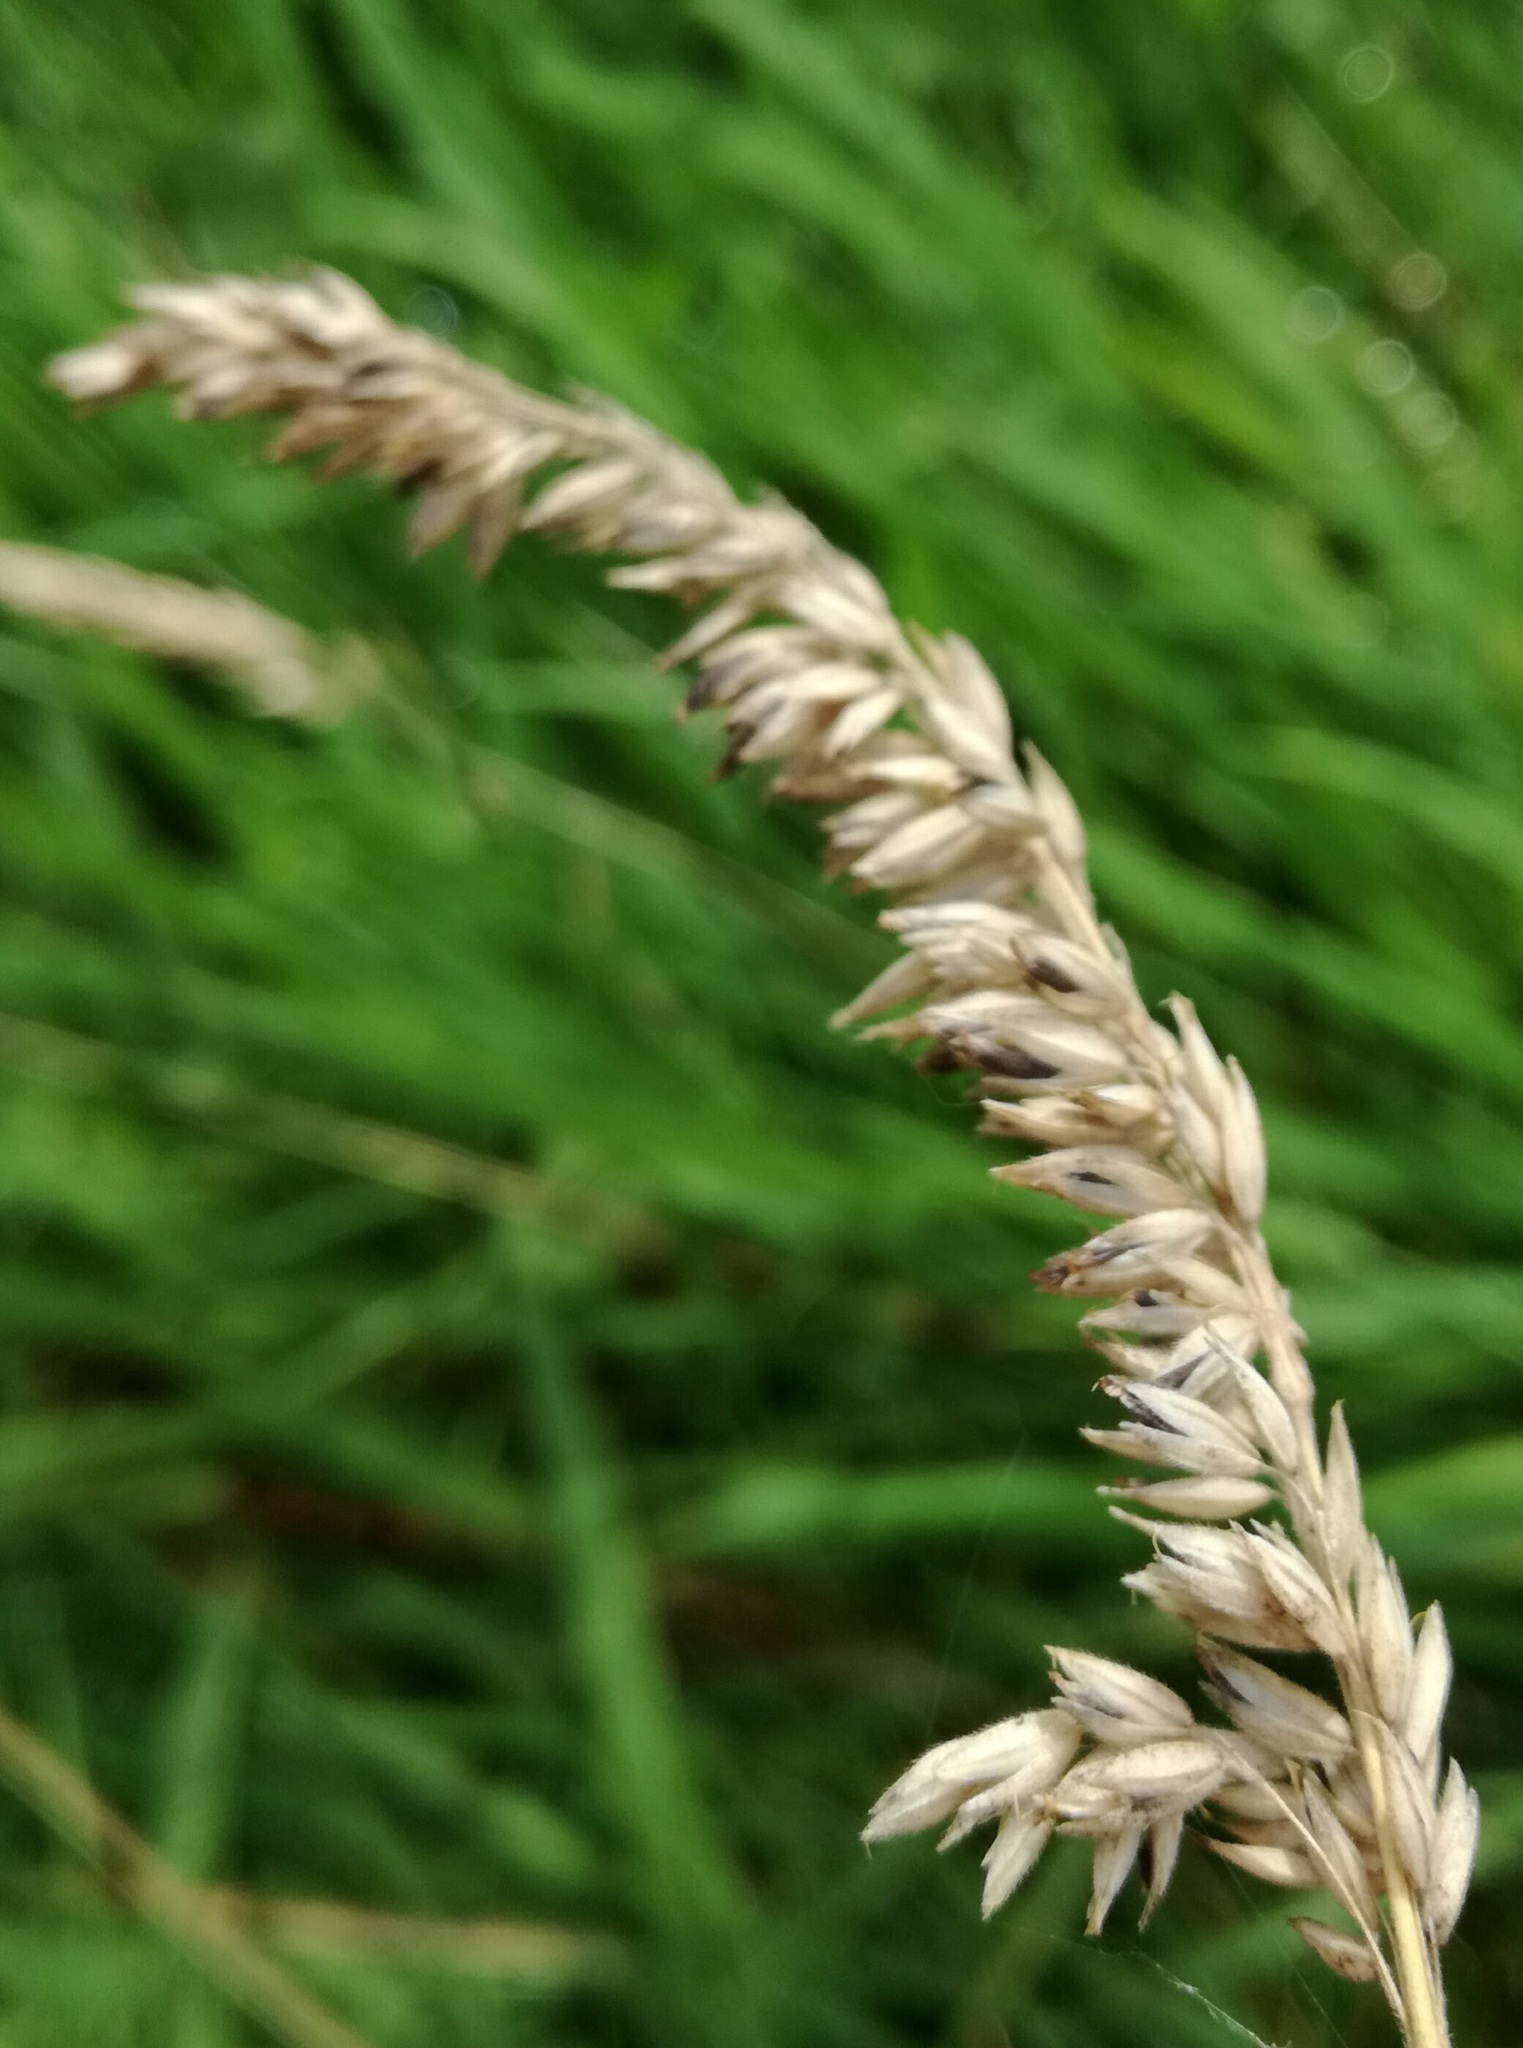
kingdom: Plantae
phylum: Tracheophyta
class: Liliopsida
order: Poales
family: Poaceae
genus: Holcus
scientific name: Holcus lanatus
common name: Yorkshire-fog
